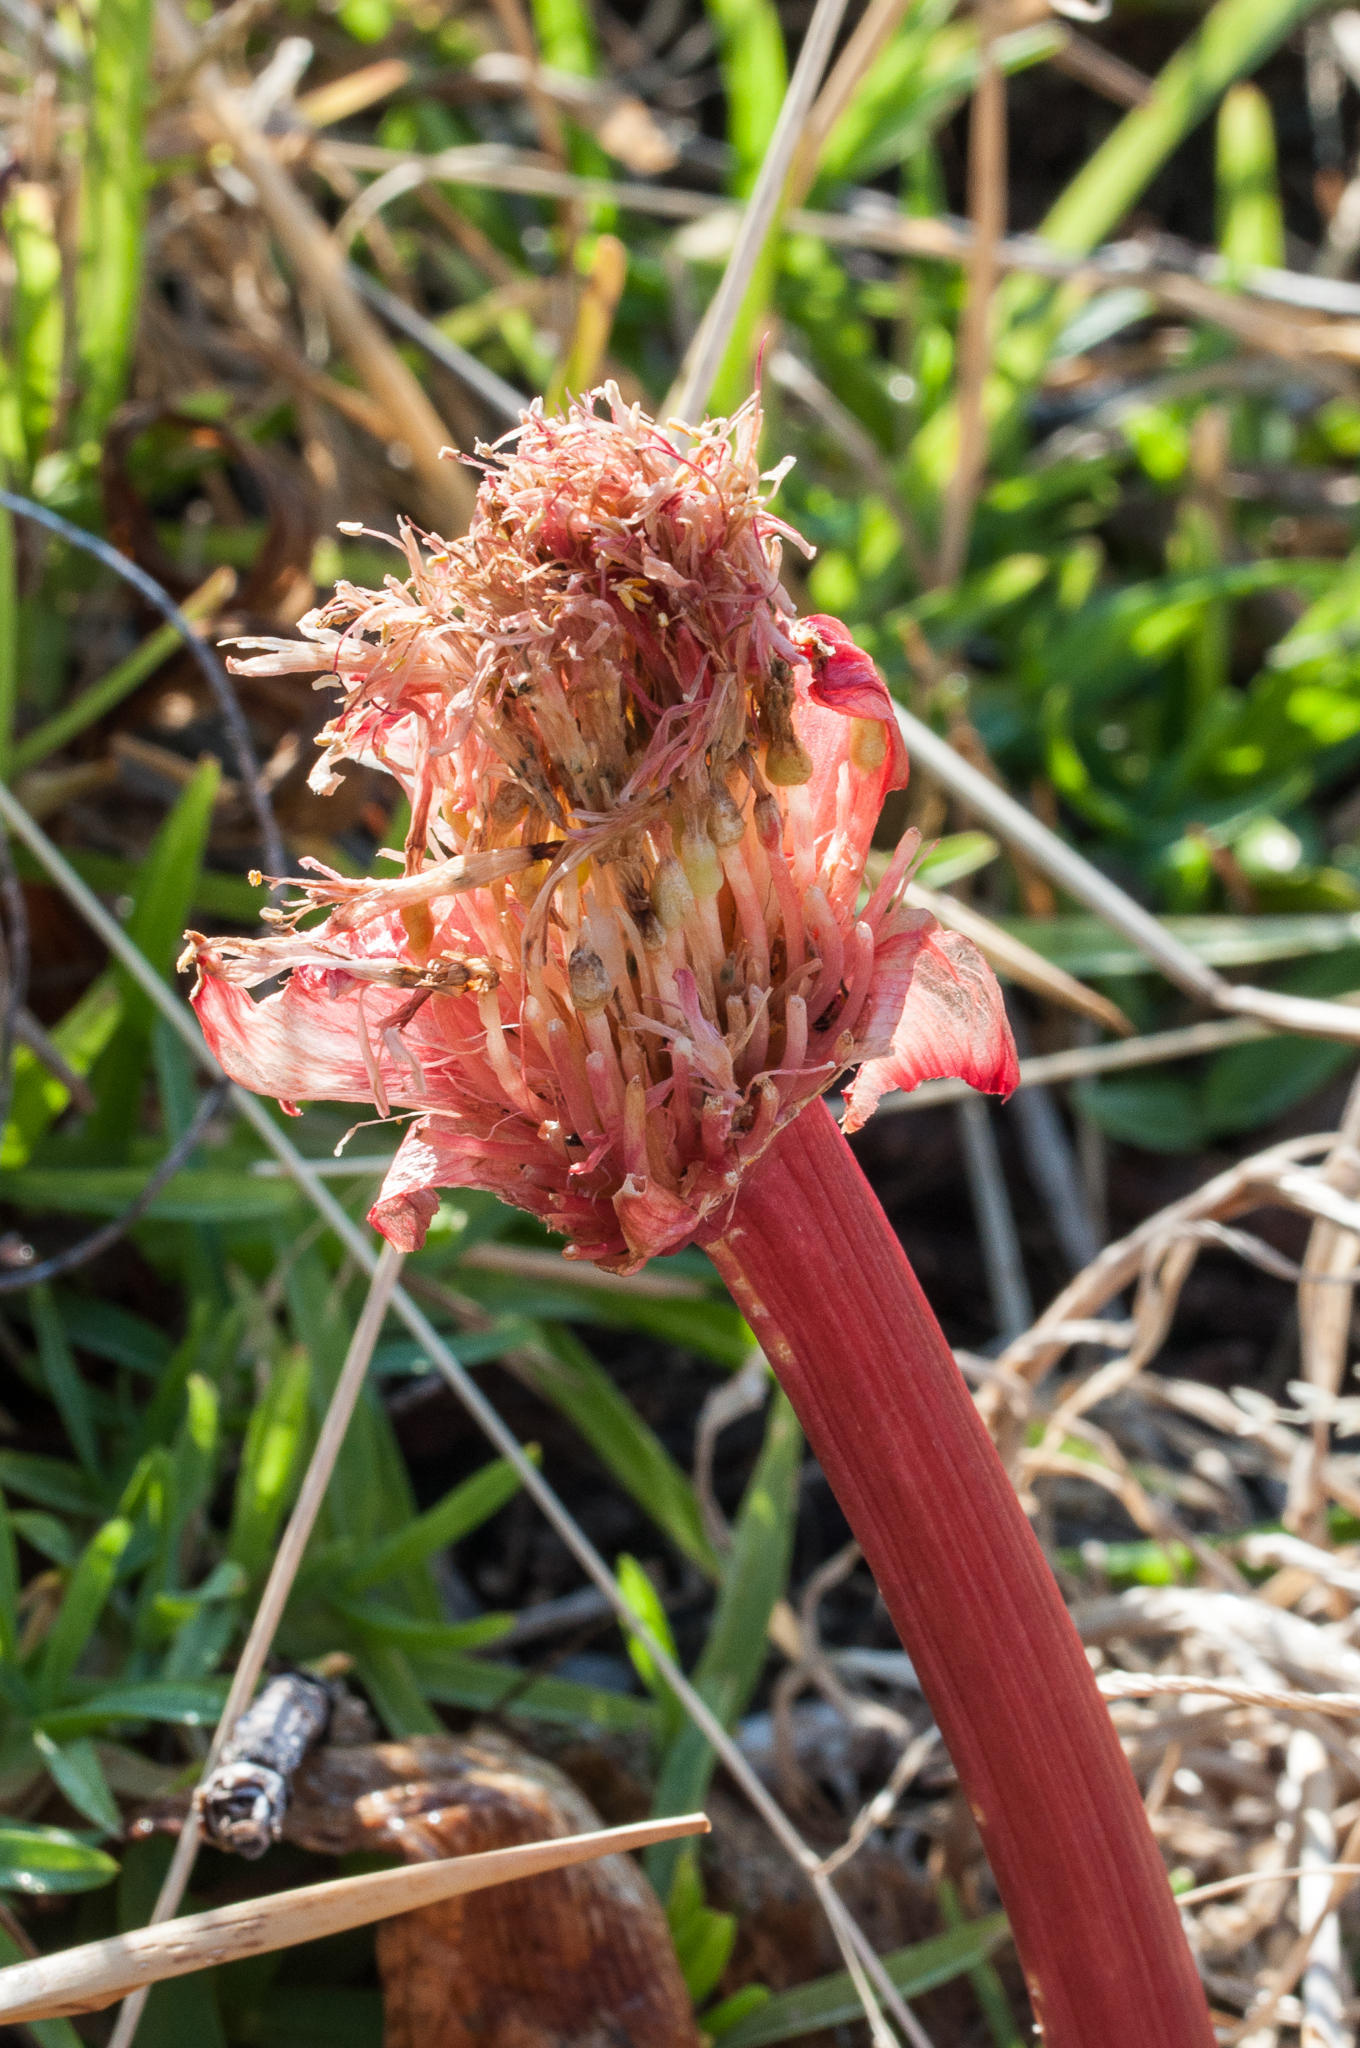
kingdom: Plantae
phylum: Tracheophyta
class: Liliopsida
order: Asparagales
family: Amaryllidaceae
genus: Haemanthus
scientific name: Haemanthus sanguineus
